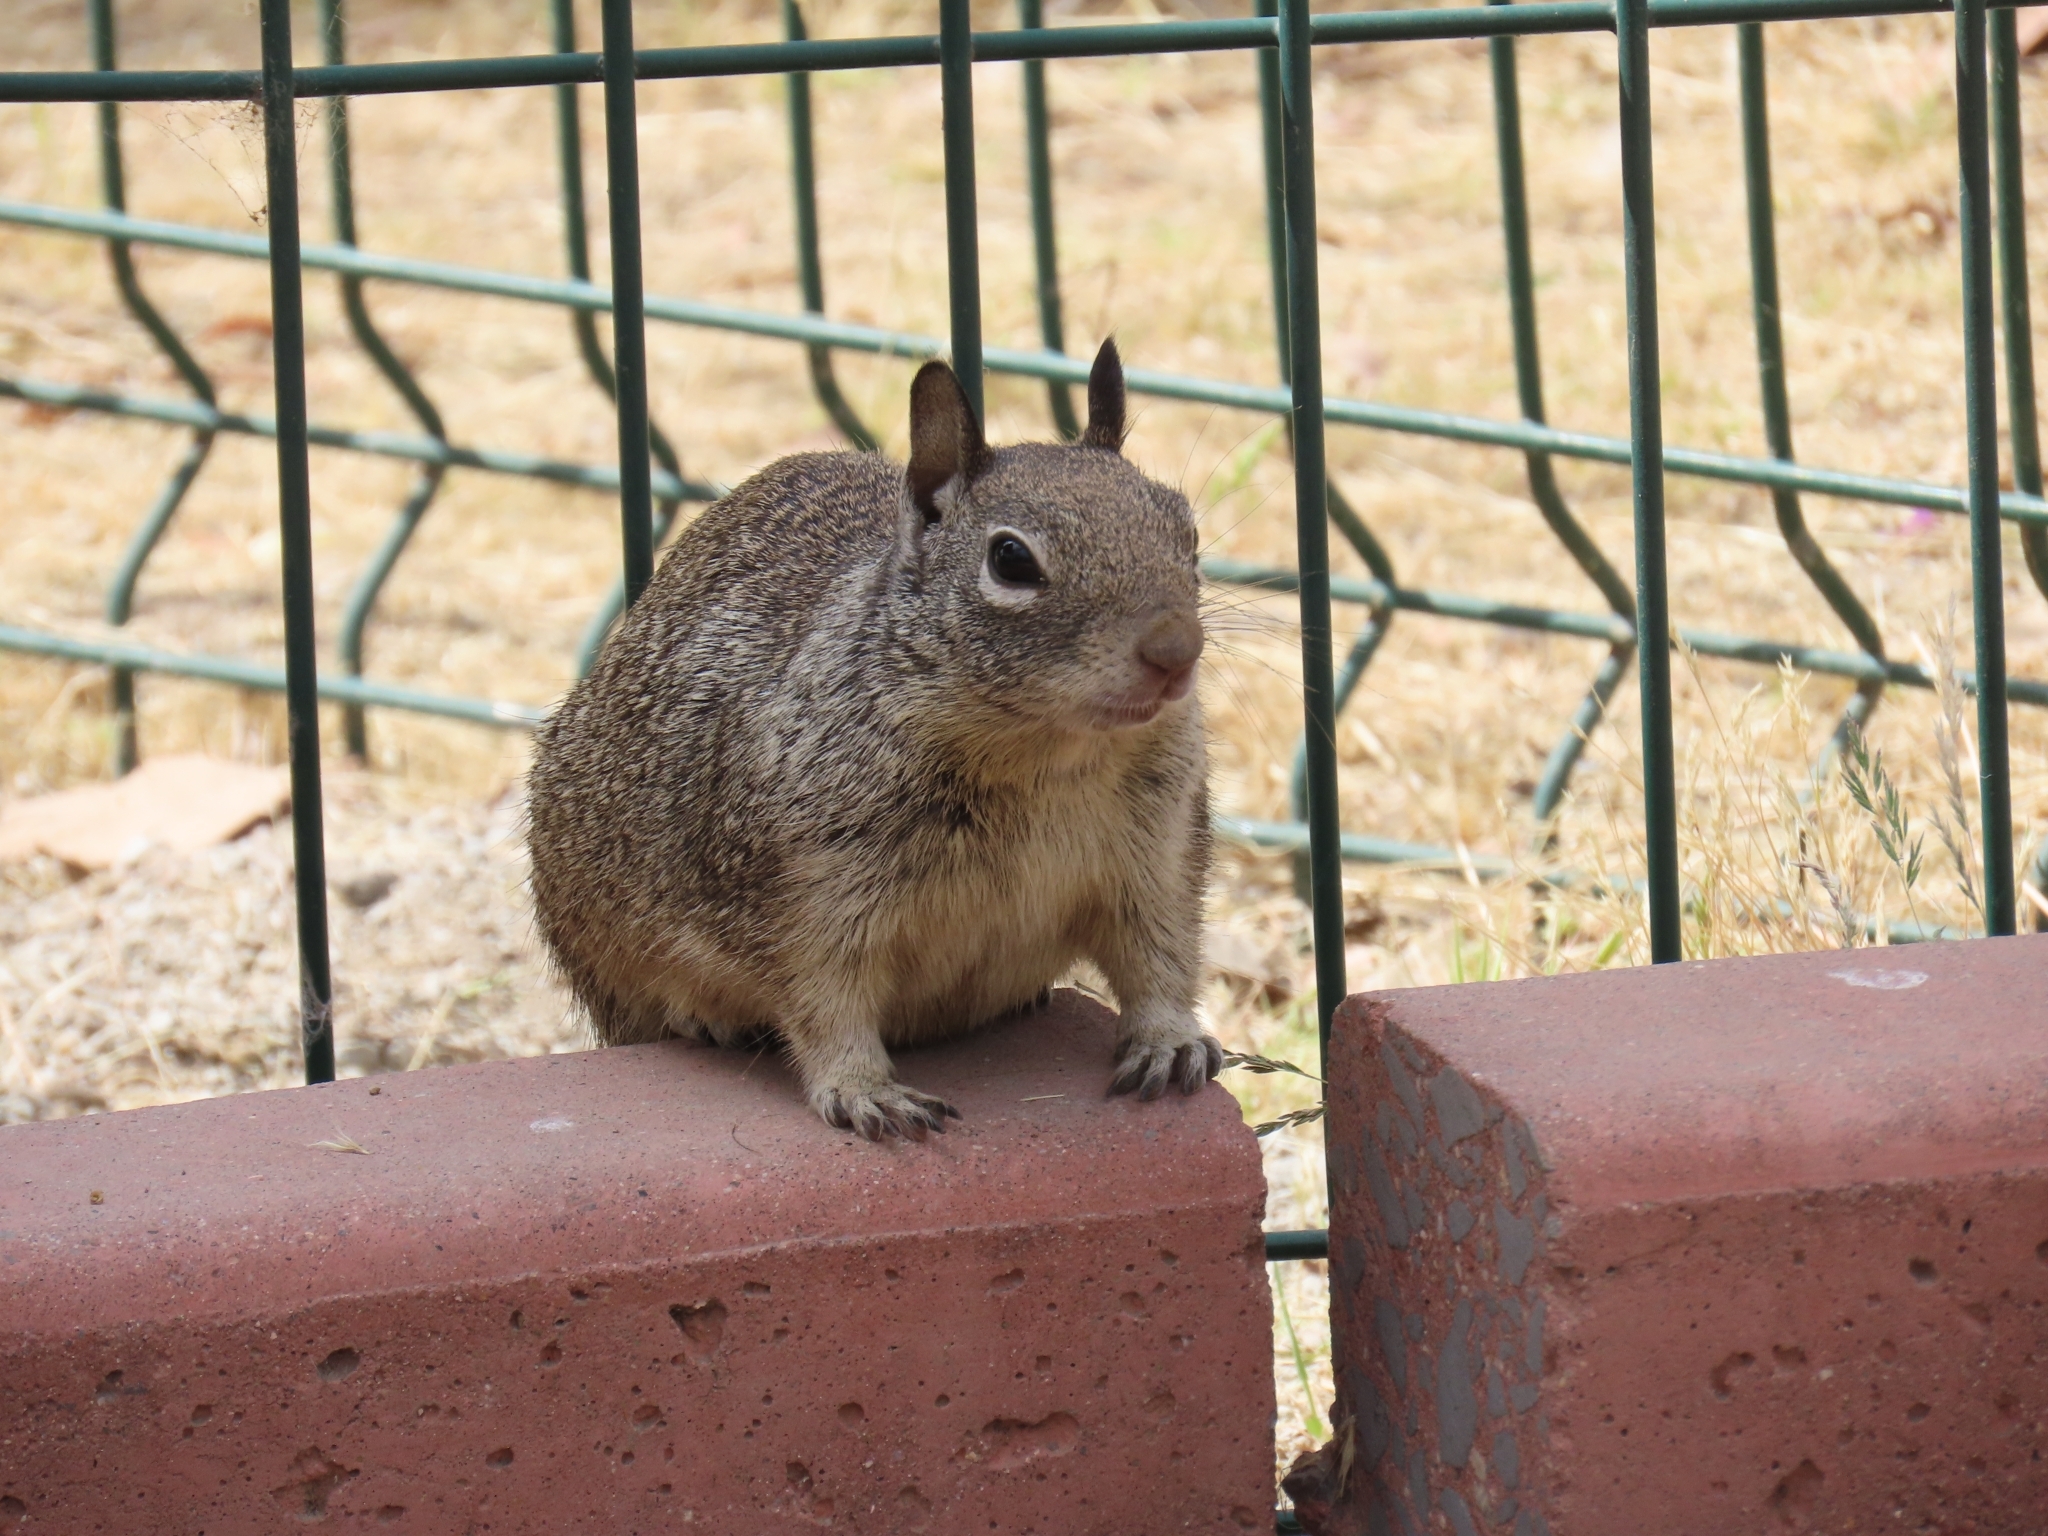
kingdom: Animalia
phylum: Chordata
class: Mammalia
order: Rodentia
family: Sciuridae
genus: Otospermophilus
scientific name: Otospermophilus beecheyi
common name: California ground squirrel
